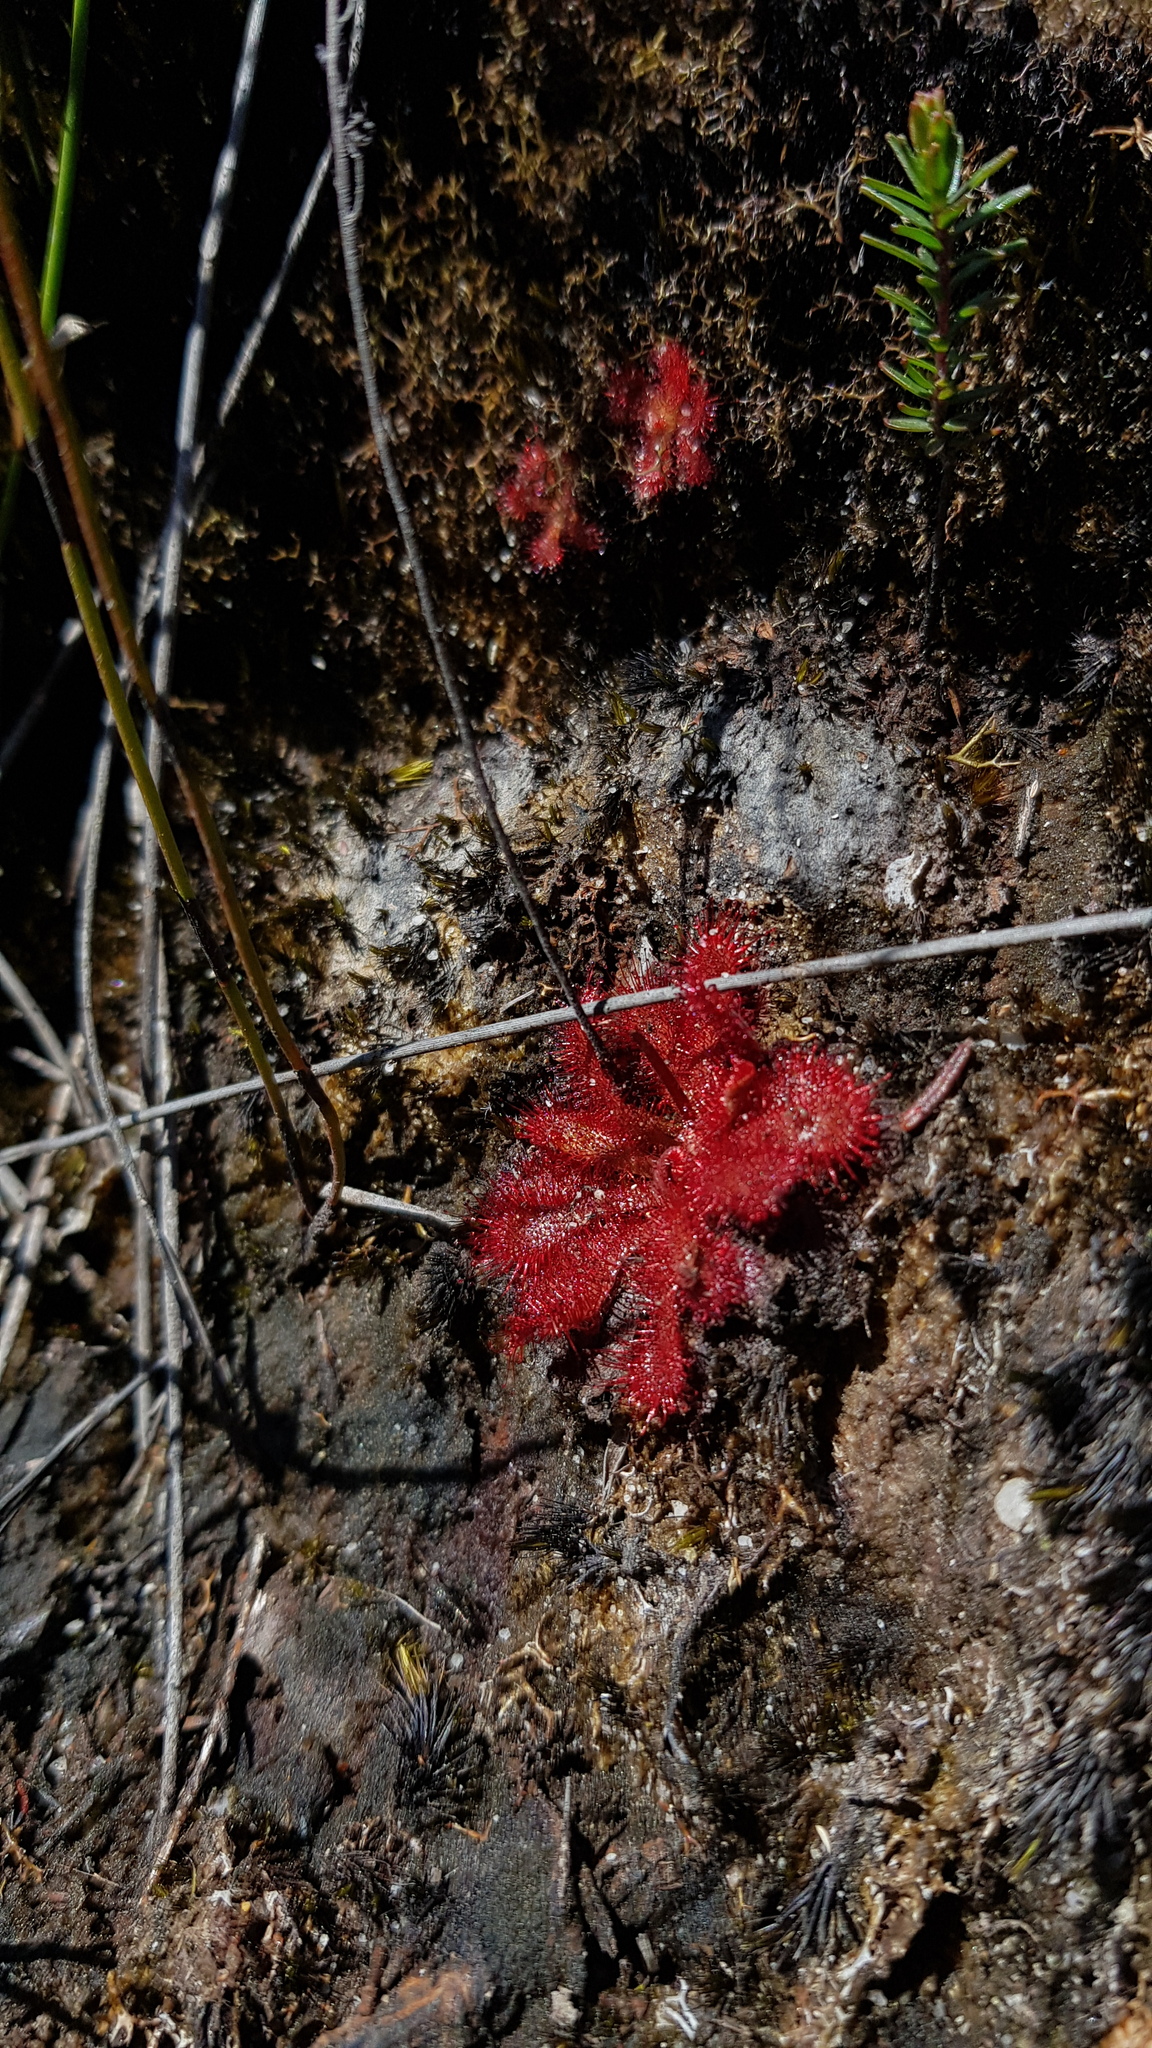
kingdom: Plantae
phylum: Tracheophyta
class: Magnoliopsida
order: Caryophyllales
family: Droseraceae
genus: Drosera
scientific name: Drosera spatulata
